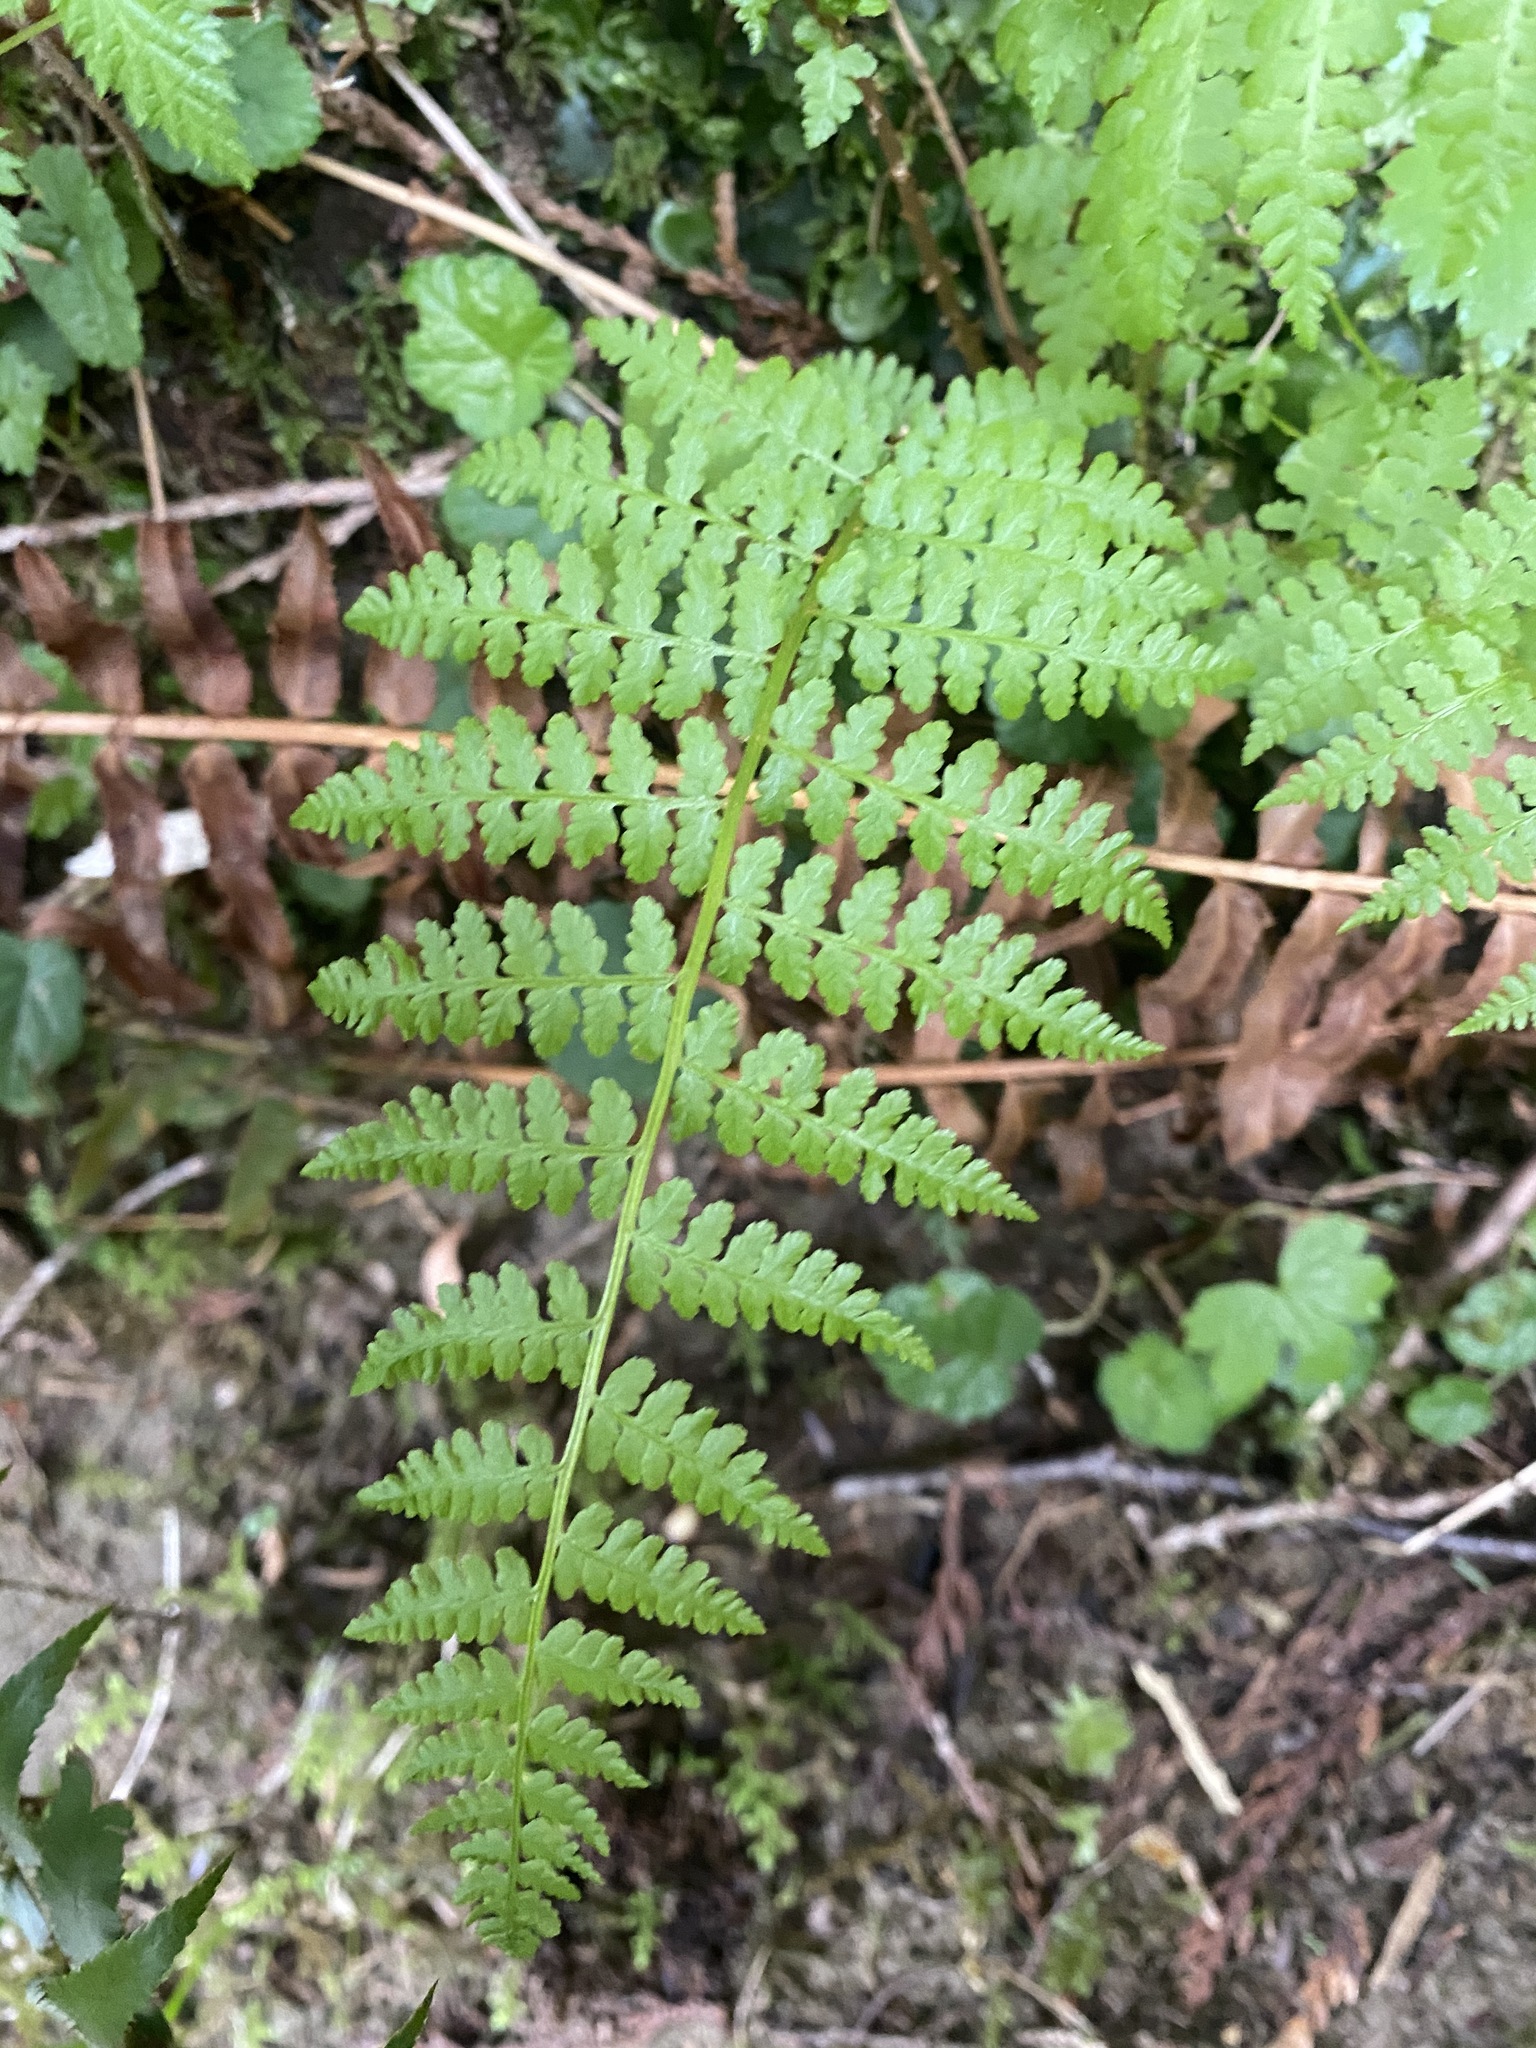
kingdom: Plantae
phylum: Tracheophyta
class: Polypodiopsida
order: Polypodiales
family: Athyriaceae
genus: Athyrium
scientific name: Athyrium filix-femina
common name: Lady fern
